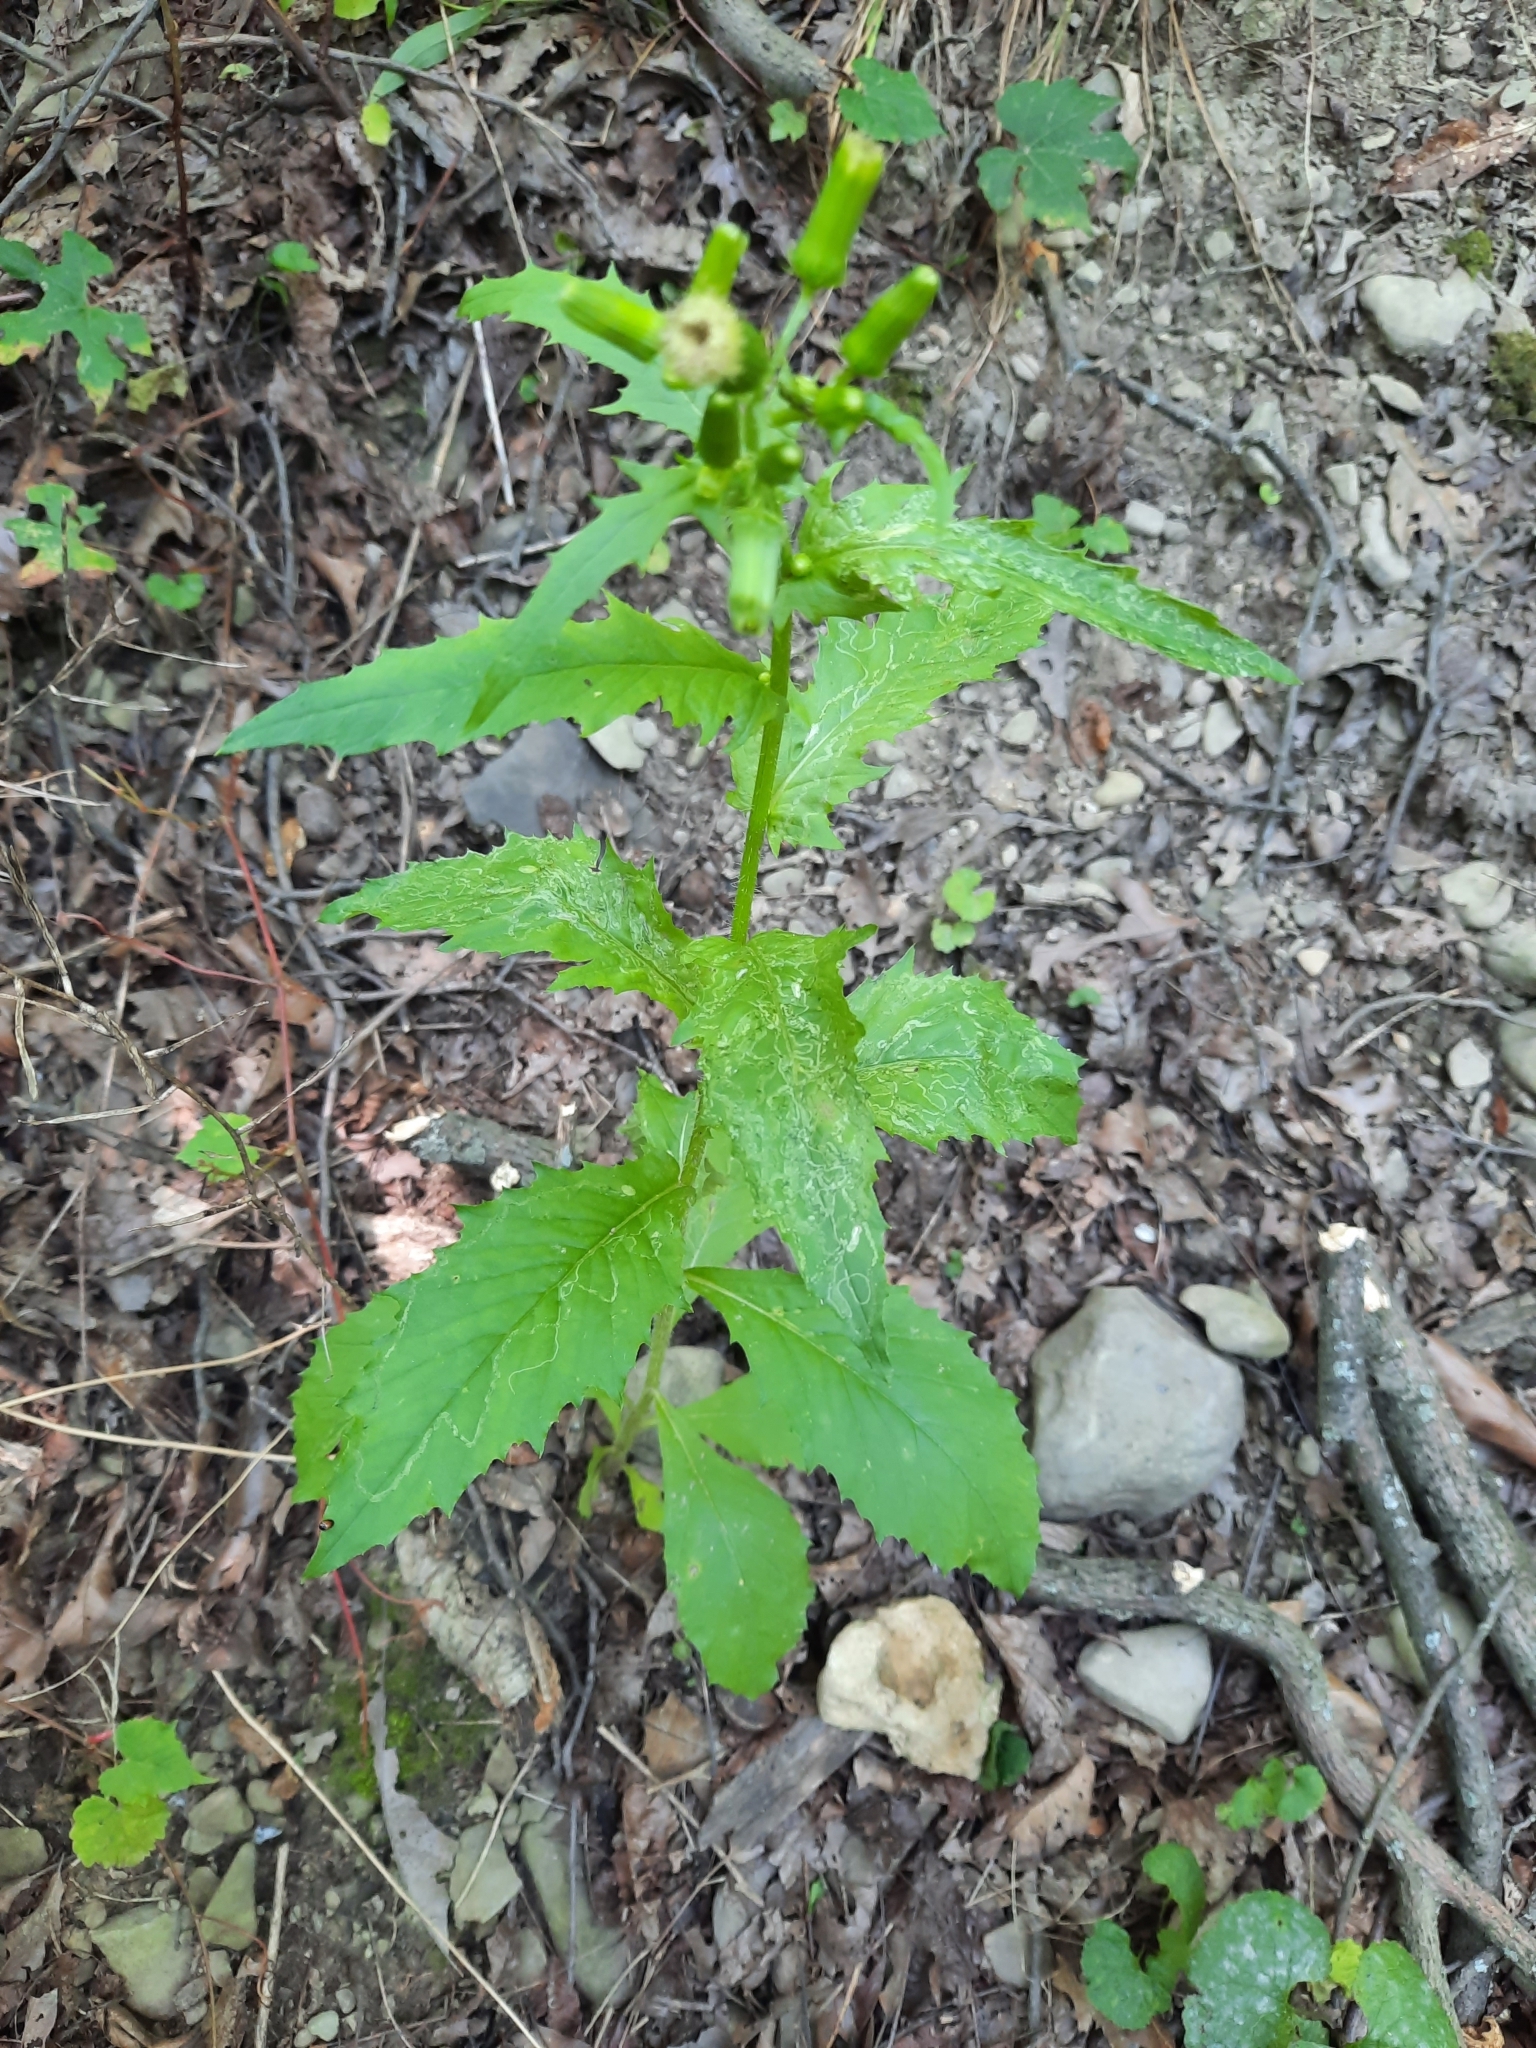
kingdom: Plantae
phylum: Tracheophyta
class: Magnoliopsida
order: Asterales
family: Asteraceae
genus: Erechtites
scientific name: Erechtites hieraciifolius
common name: American burnweed
